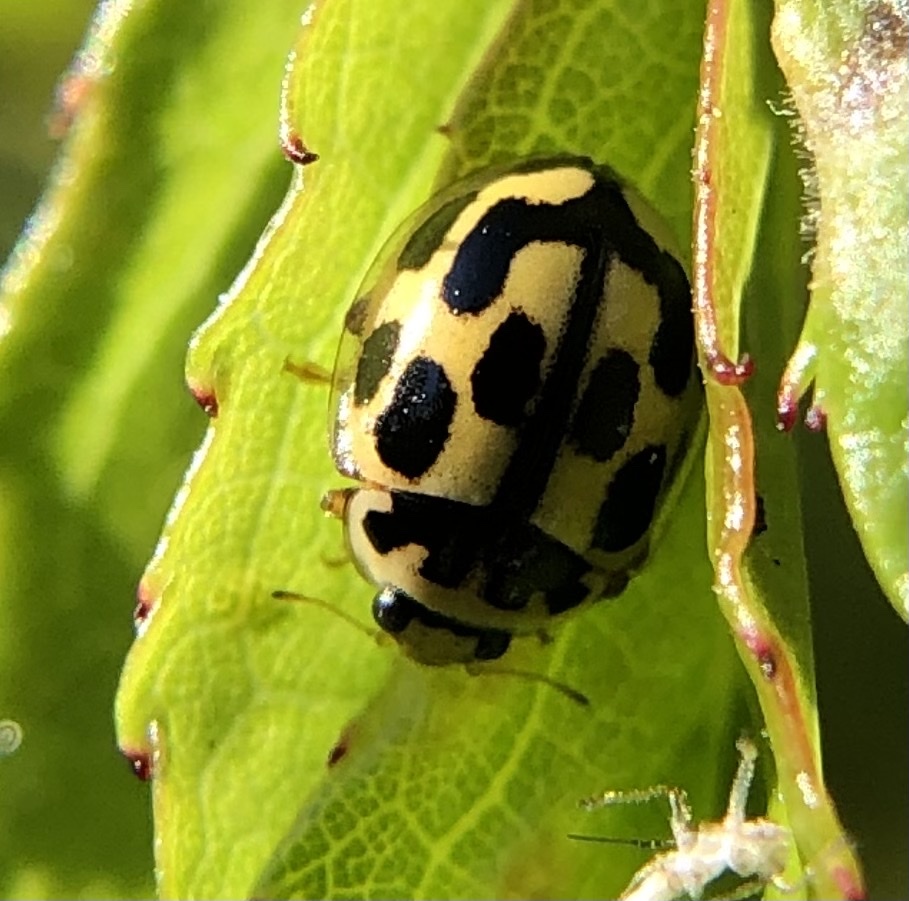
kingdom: Animalia
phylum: Arthropoda
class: Insecta
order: Coleoptera
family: Coccinellidae
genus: Propylaea
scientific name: Propylaea quatuordecimpunctata
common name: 14-spotted ladybird beetle
